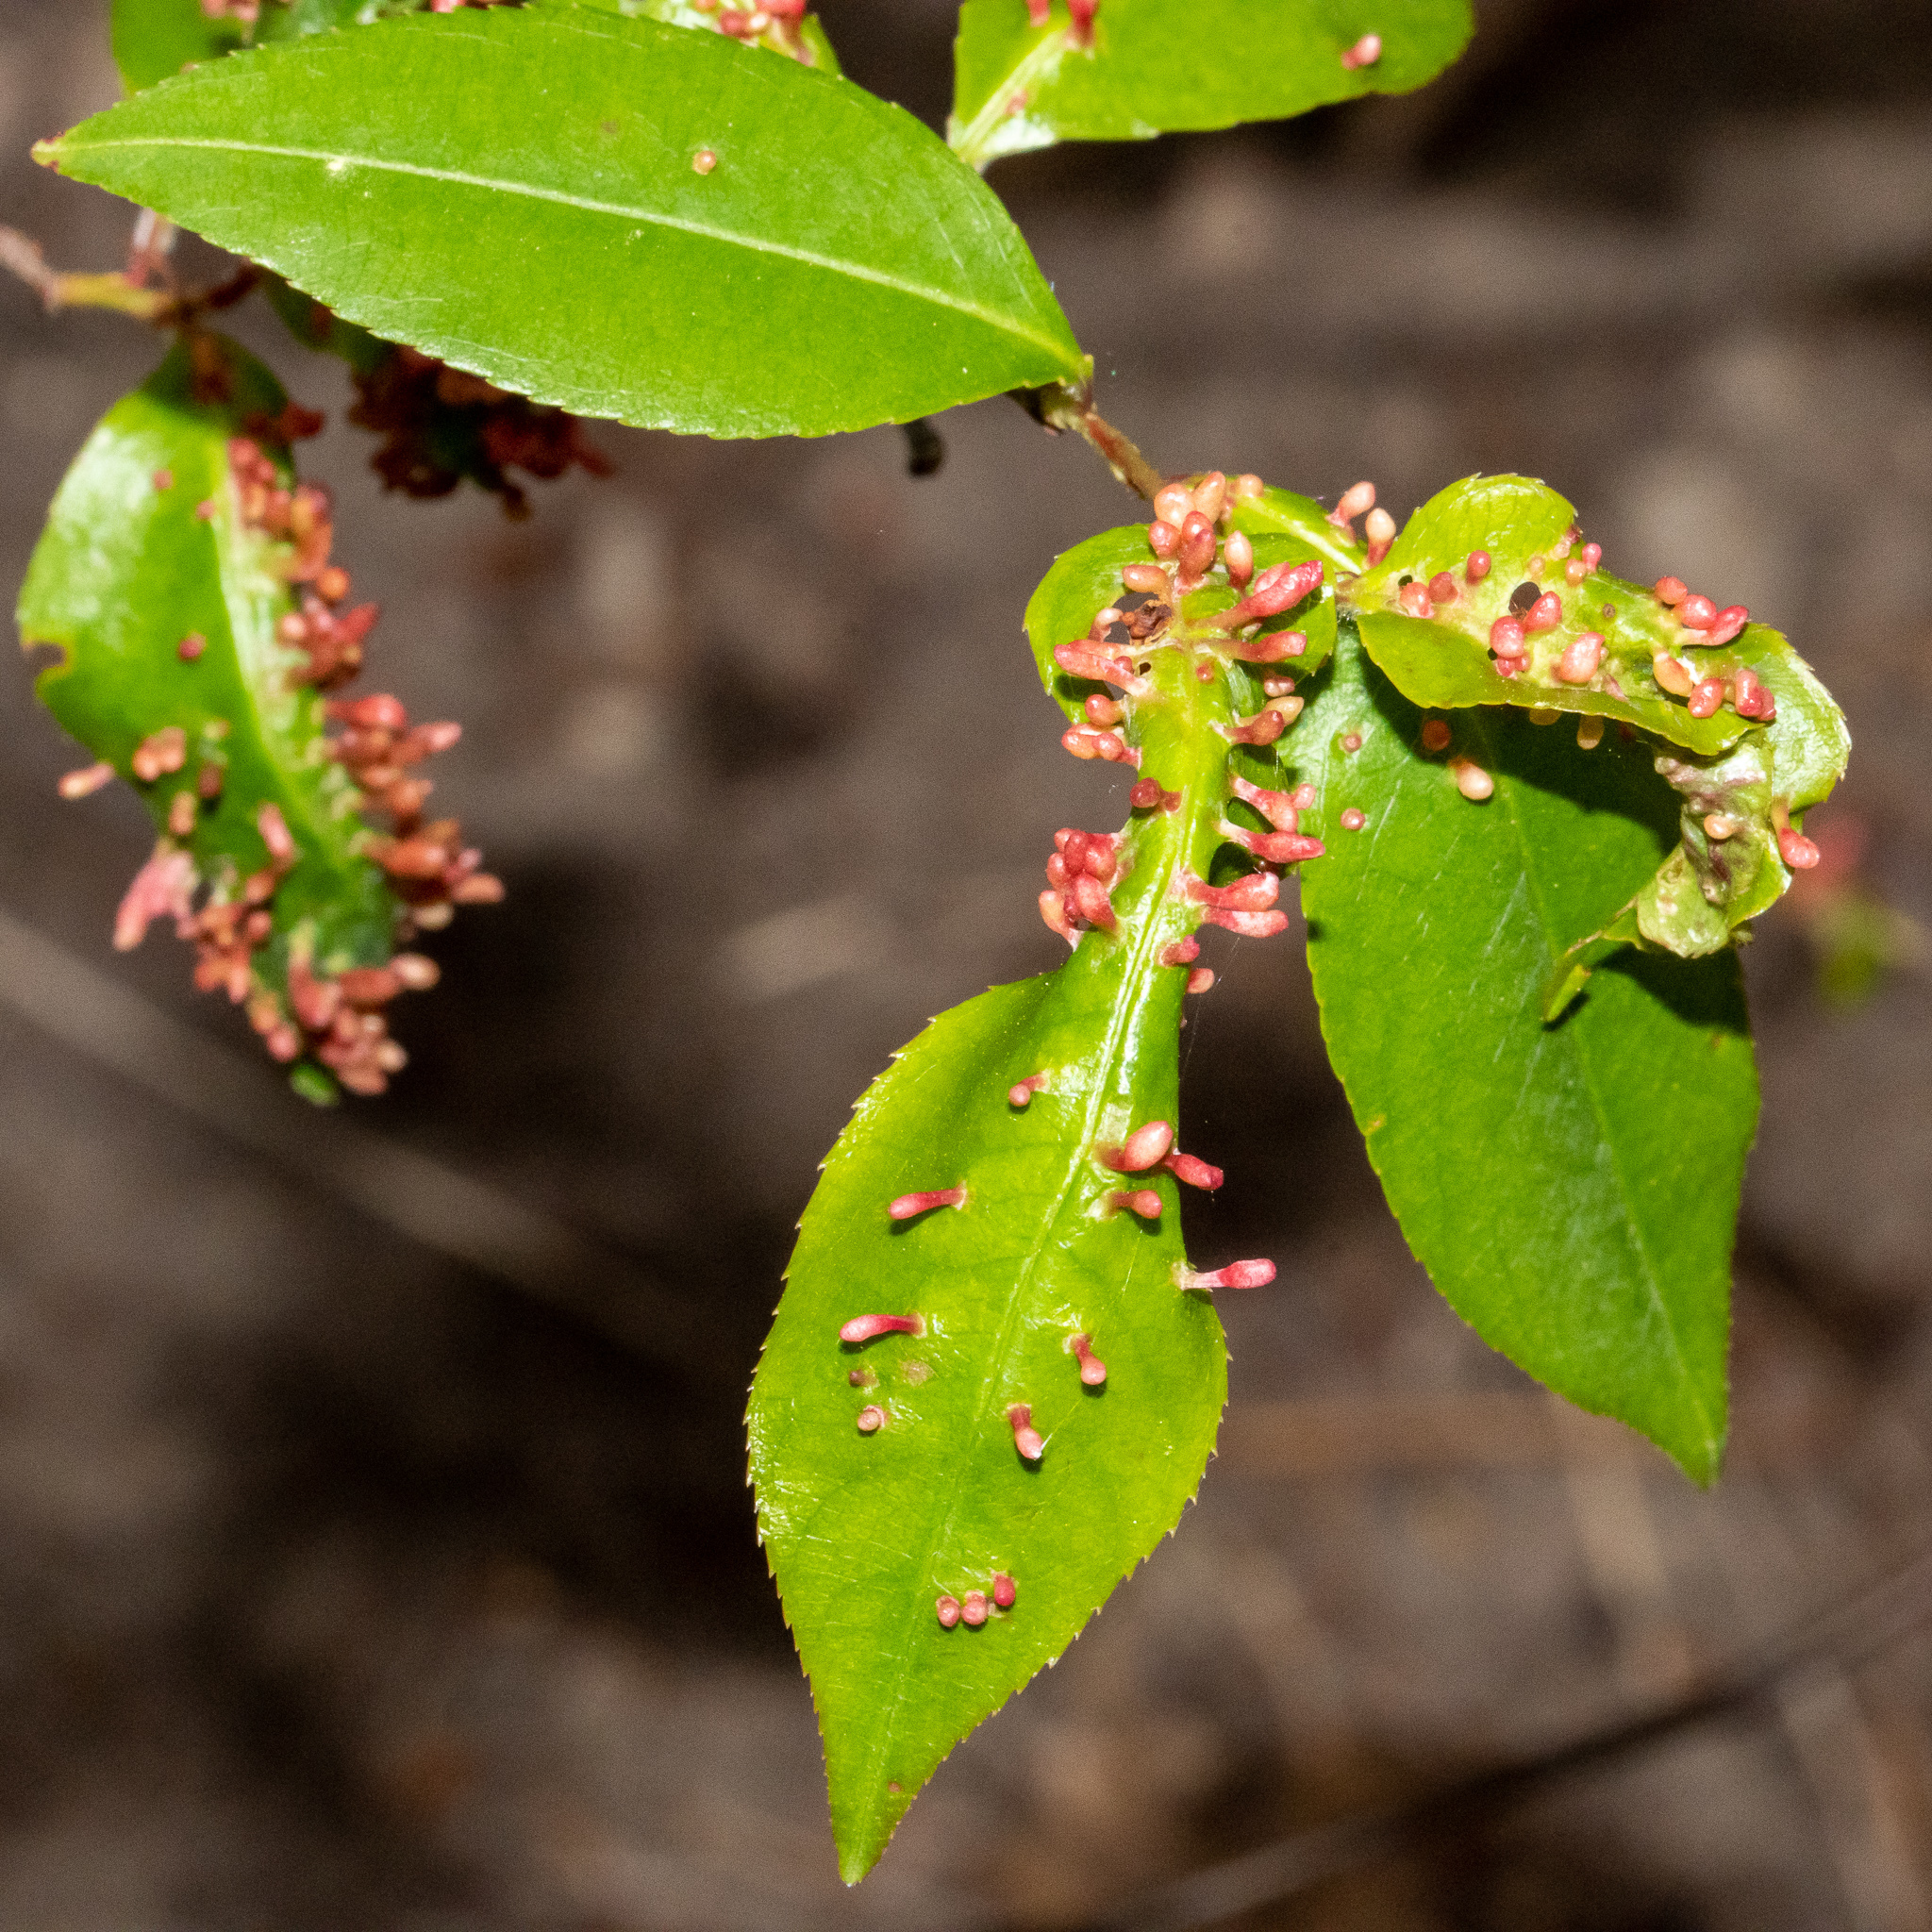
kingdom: Animalia
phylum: Arthropoda
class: Arachnida
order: Trombidiformes
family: Eriophyidae
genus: Eriophyes
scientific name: Eriophyes
